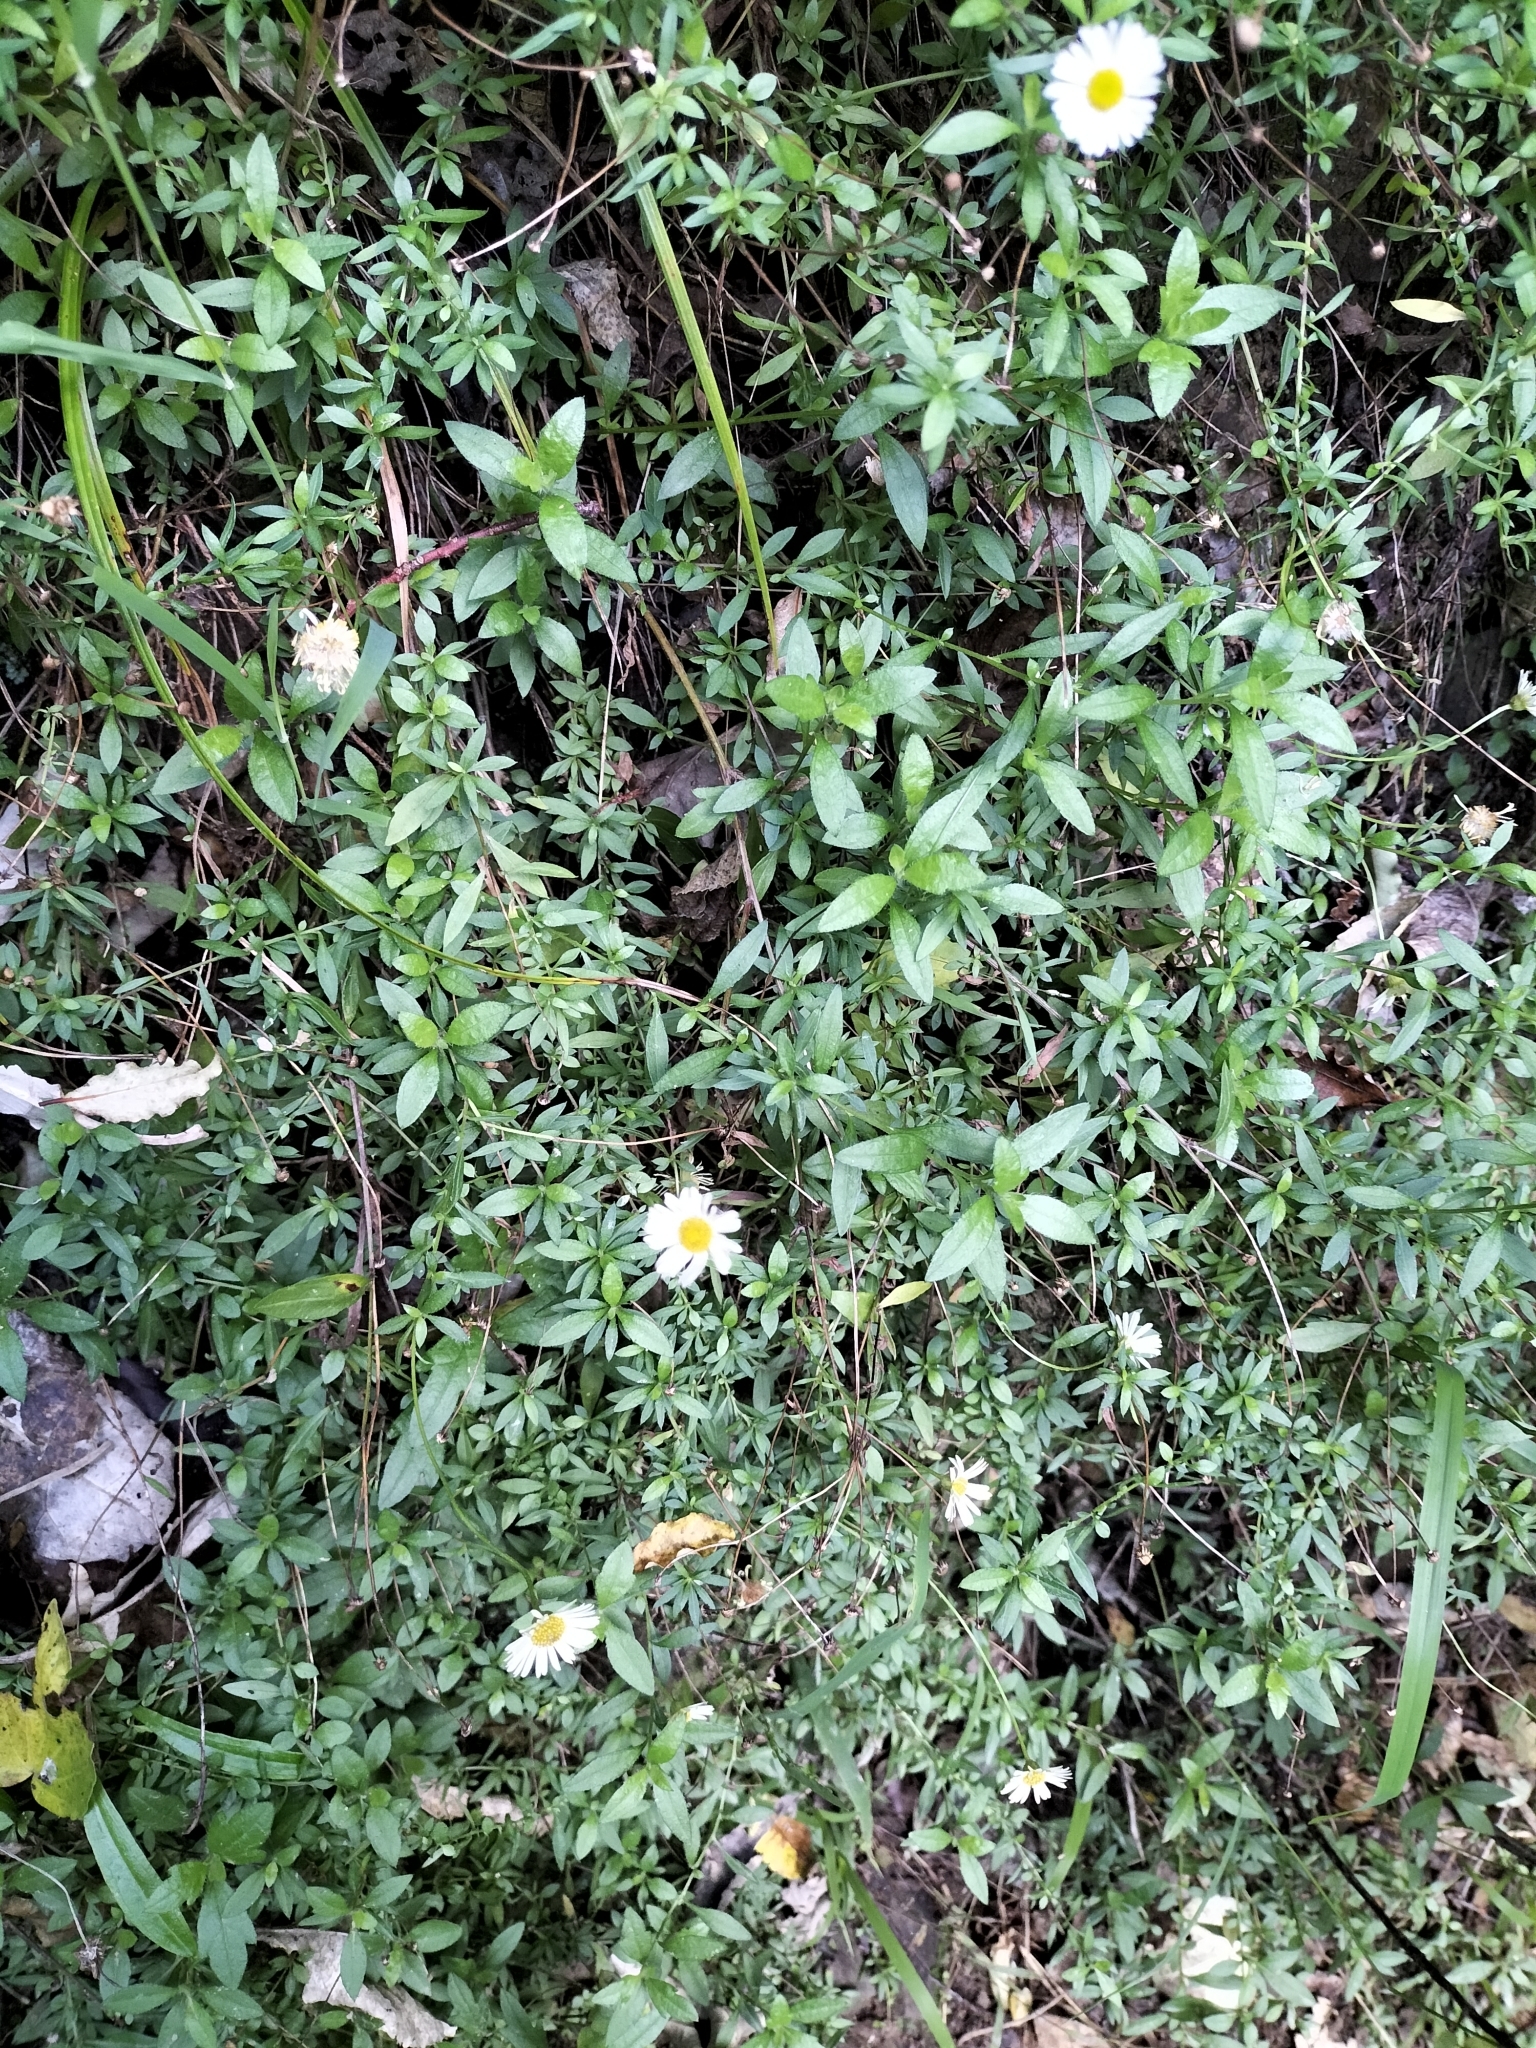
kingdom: Plantae
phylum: Tracheophyta
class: Magnoliopsida
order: Asterales
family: Asteraceae
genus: Erigeron
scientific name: Erigeron karvinskianus
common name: Mexican fleabane
